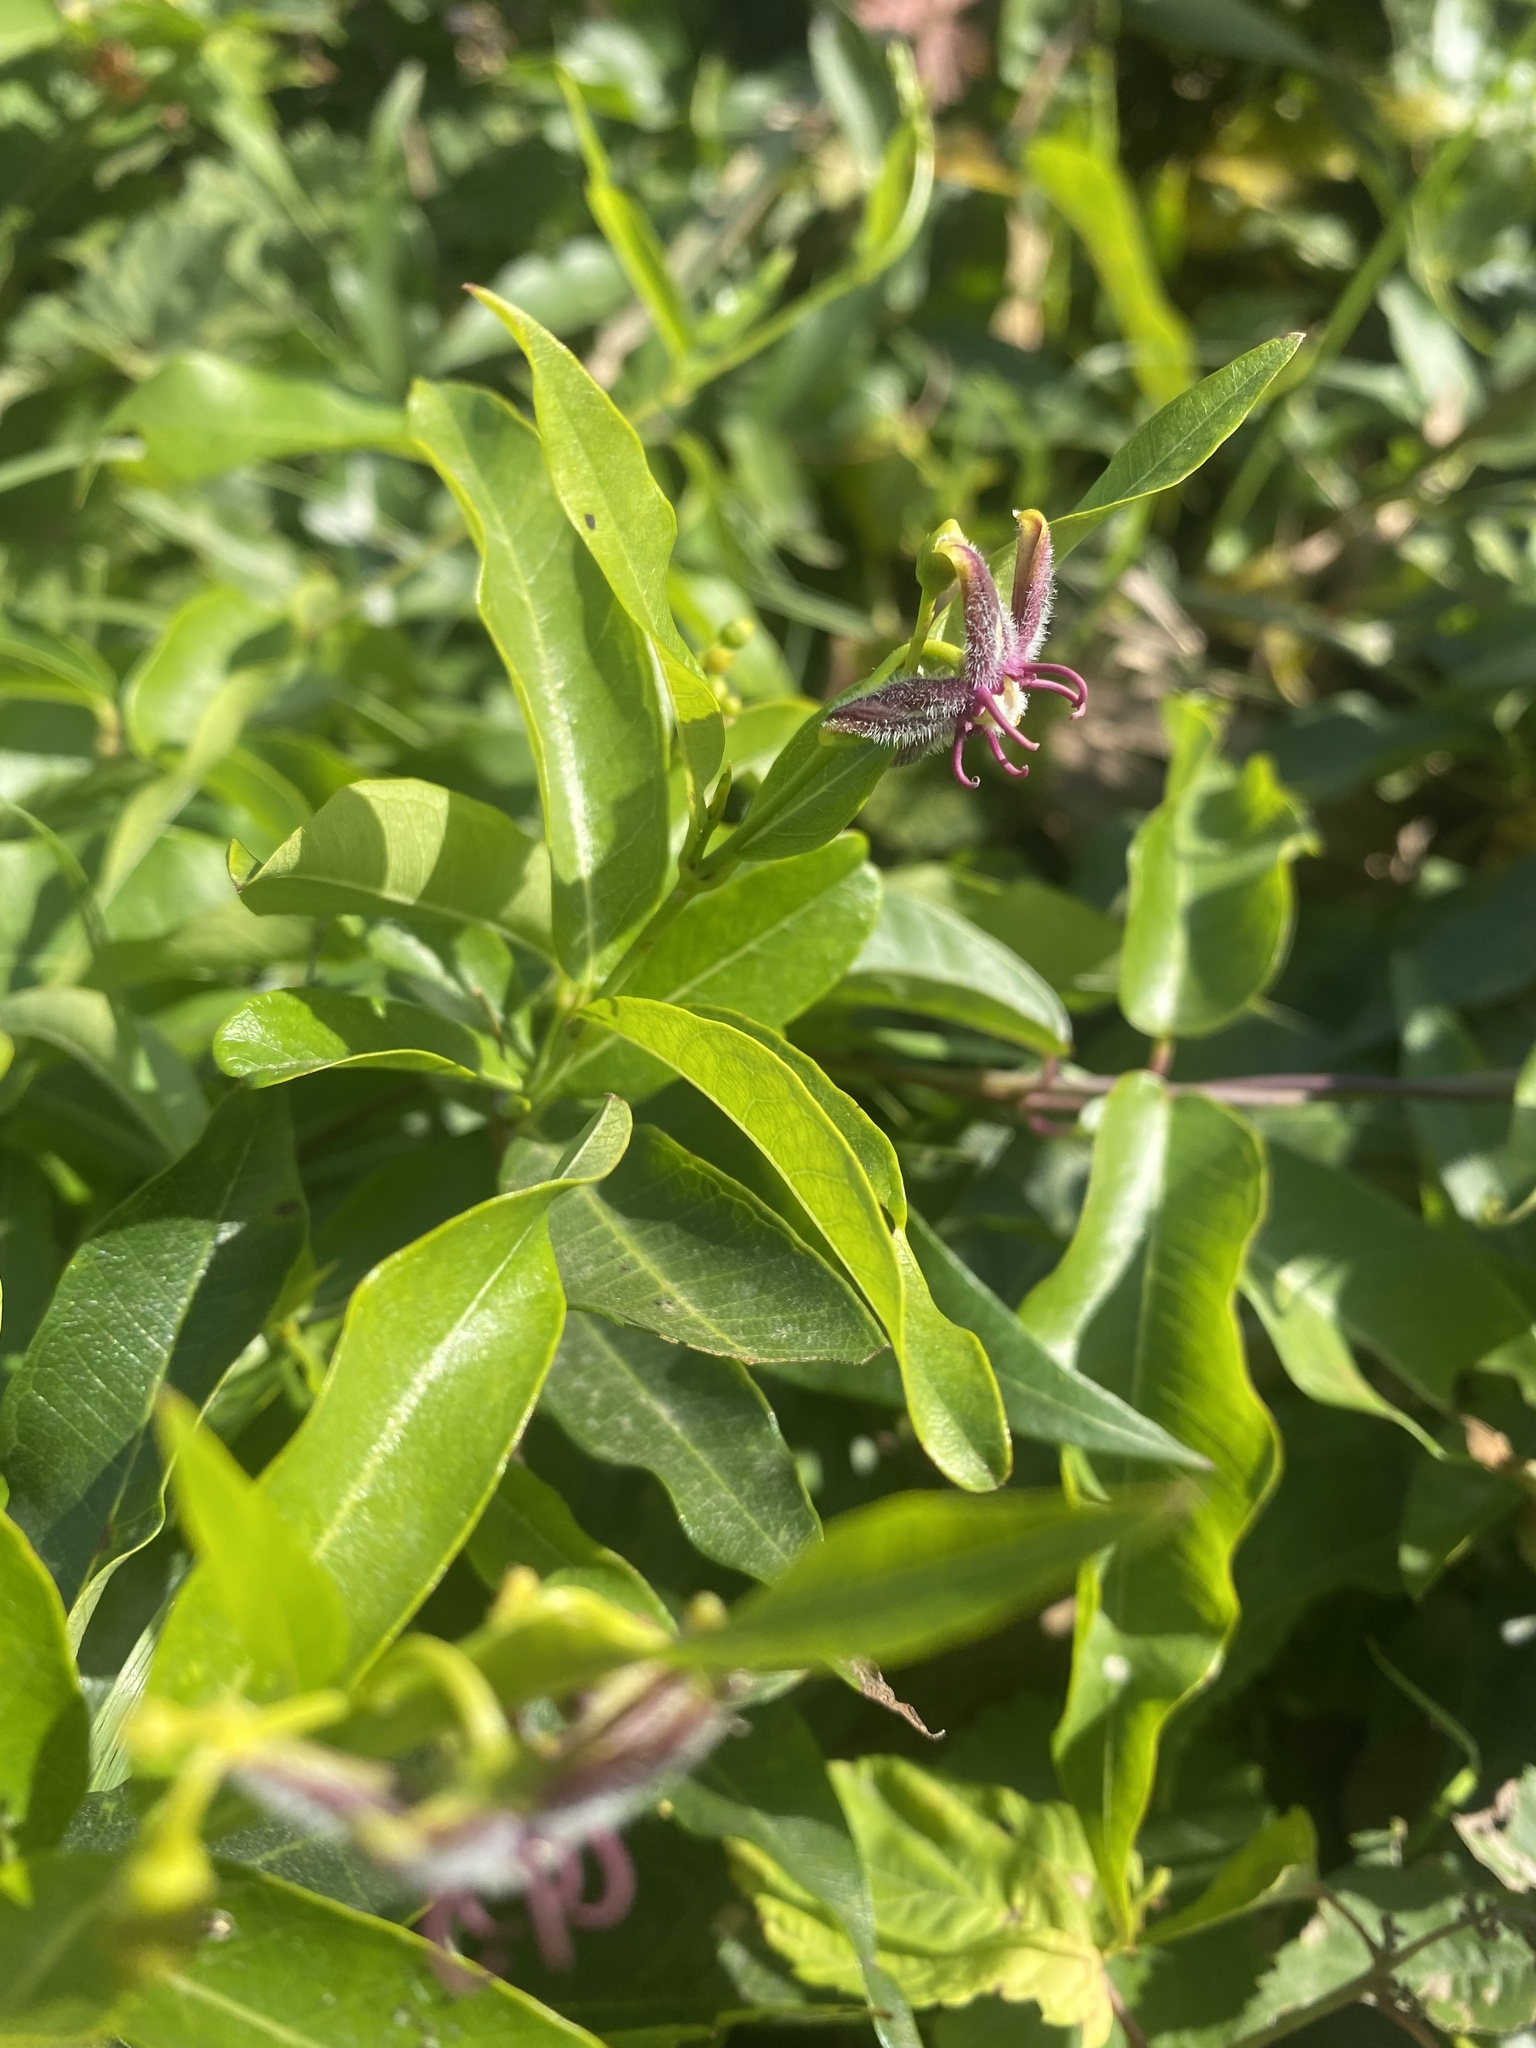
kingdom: Plantae
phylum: Tracheophyta
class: Magnoliopsida
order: Gentianales
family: Apocynaceae
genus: Periploca
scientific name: Periploca graeca
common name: Silkvine
